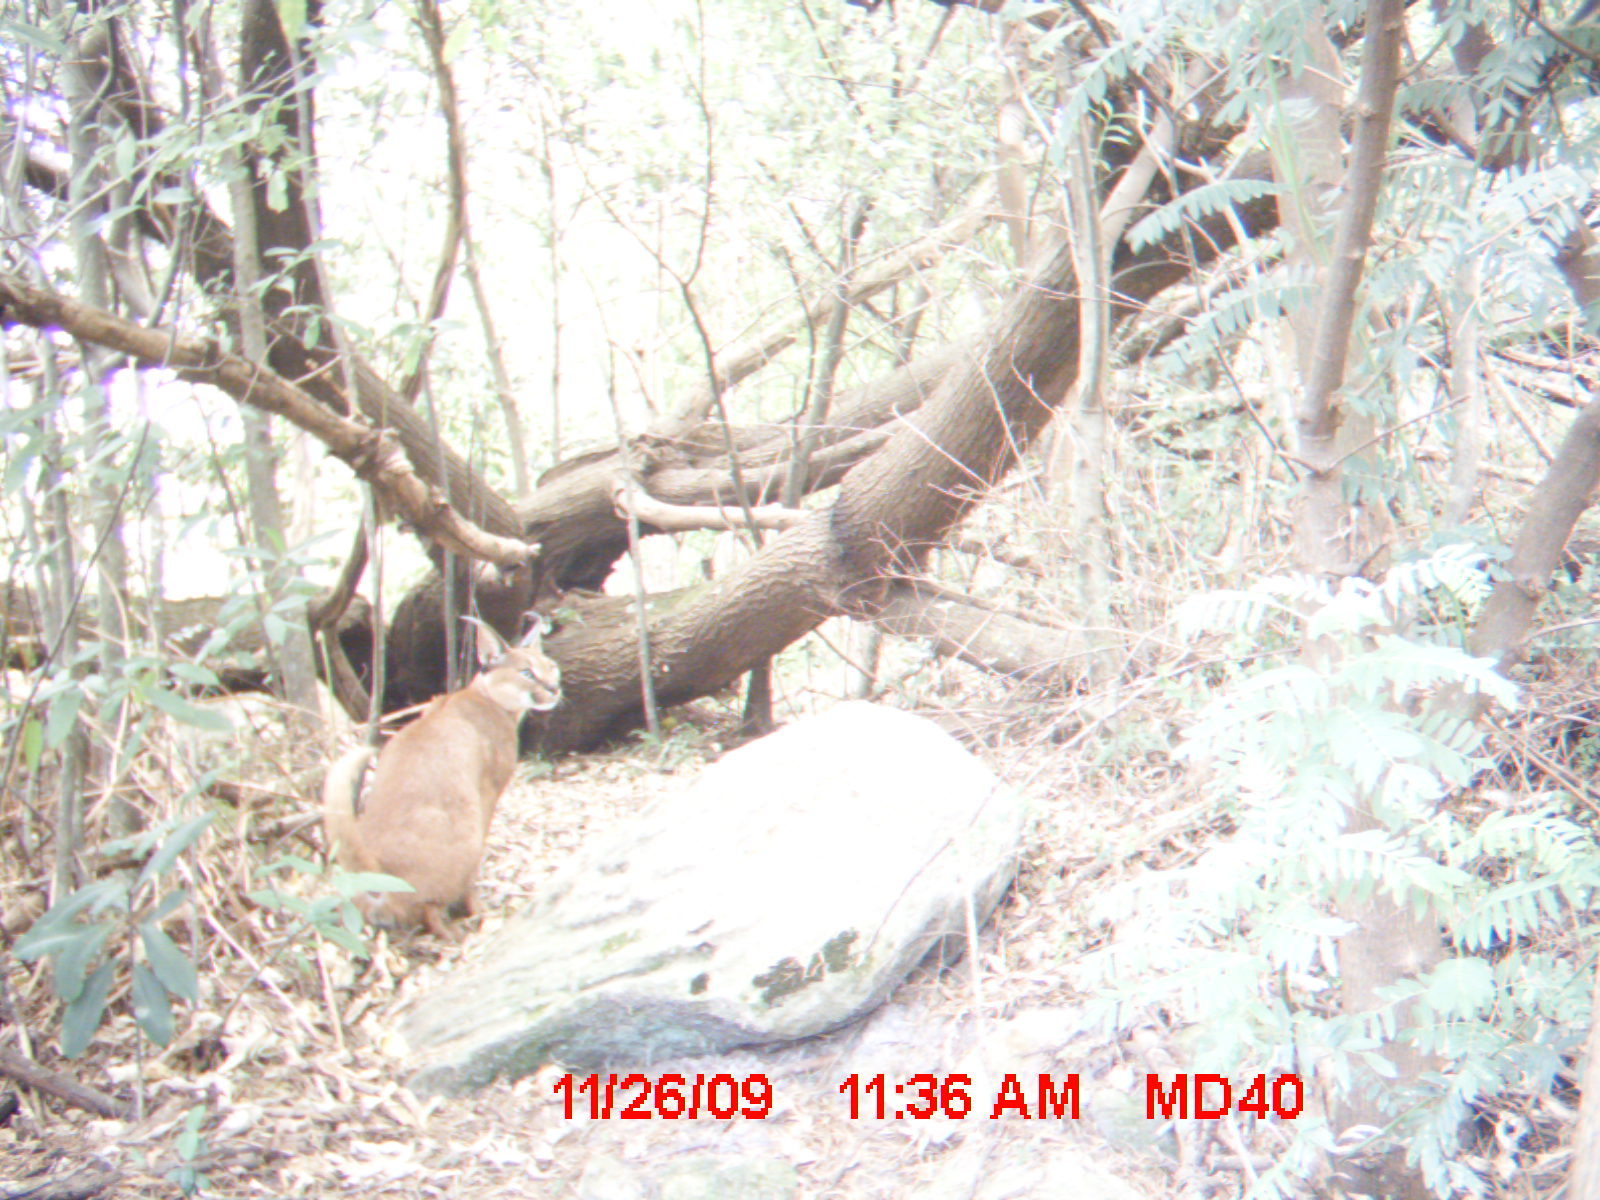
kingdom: Animalia
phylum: Chordata
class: Mammalia
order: Carnivora
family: Felidae
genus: Caracal
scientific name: Caracal caracal
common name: Caracal
